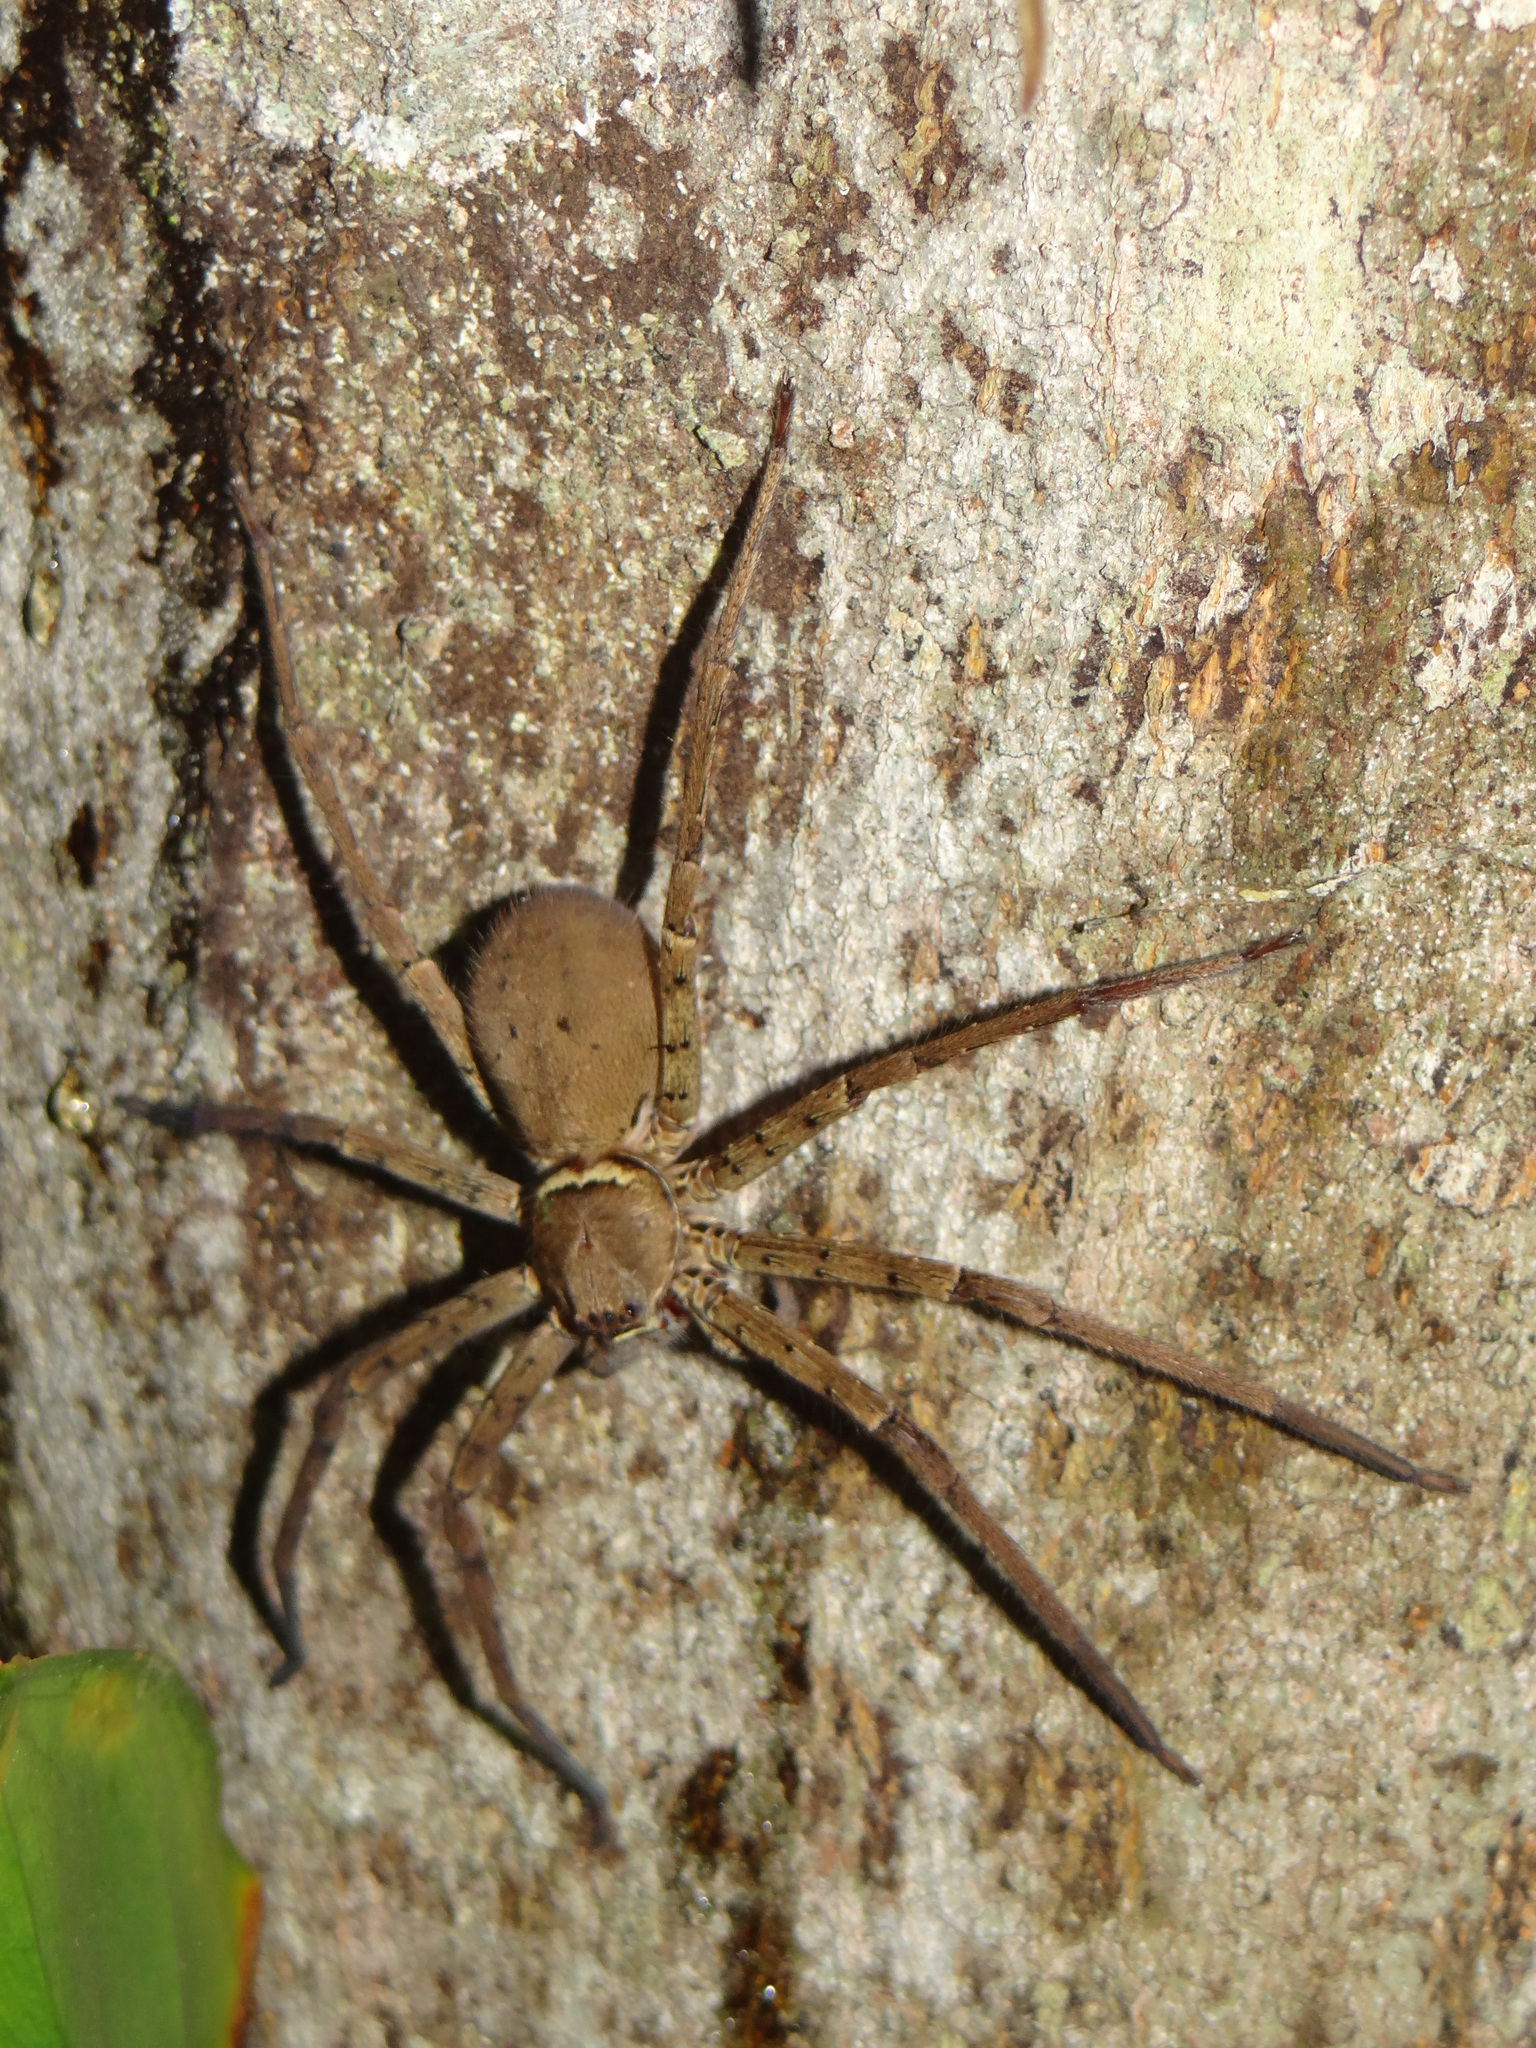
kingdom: Animalia
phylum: Arthropoda
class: Arachnida
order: Araneae
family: Sparassidae
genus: Heteropoda
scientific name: Heteropoda venatoria
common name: Huntsman spider
